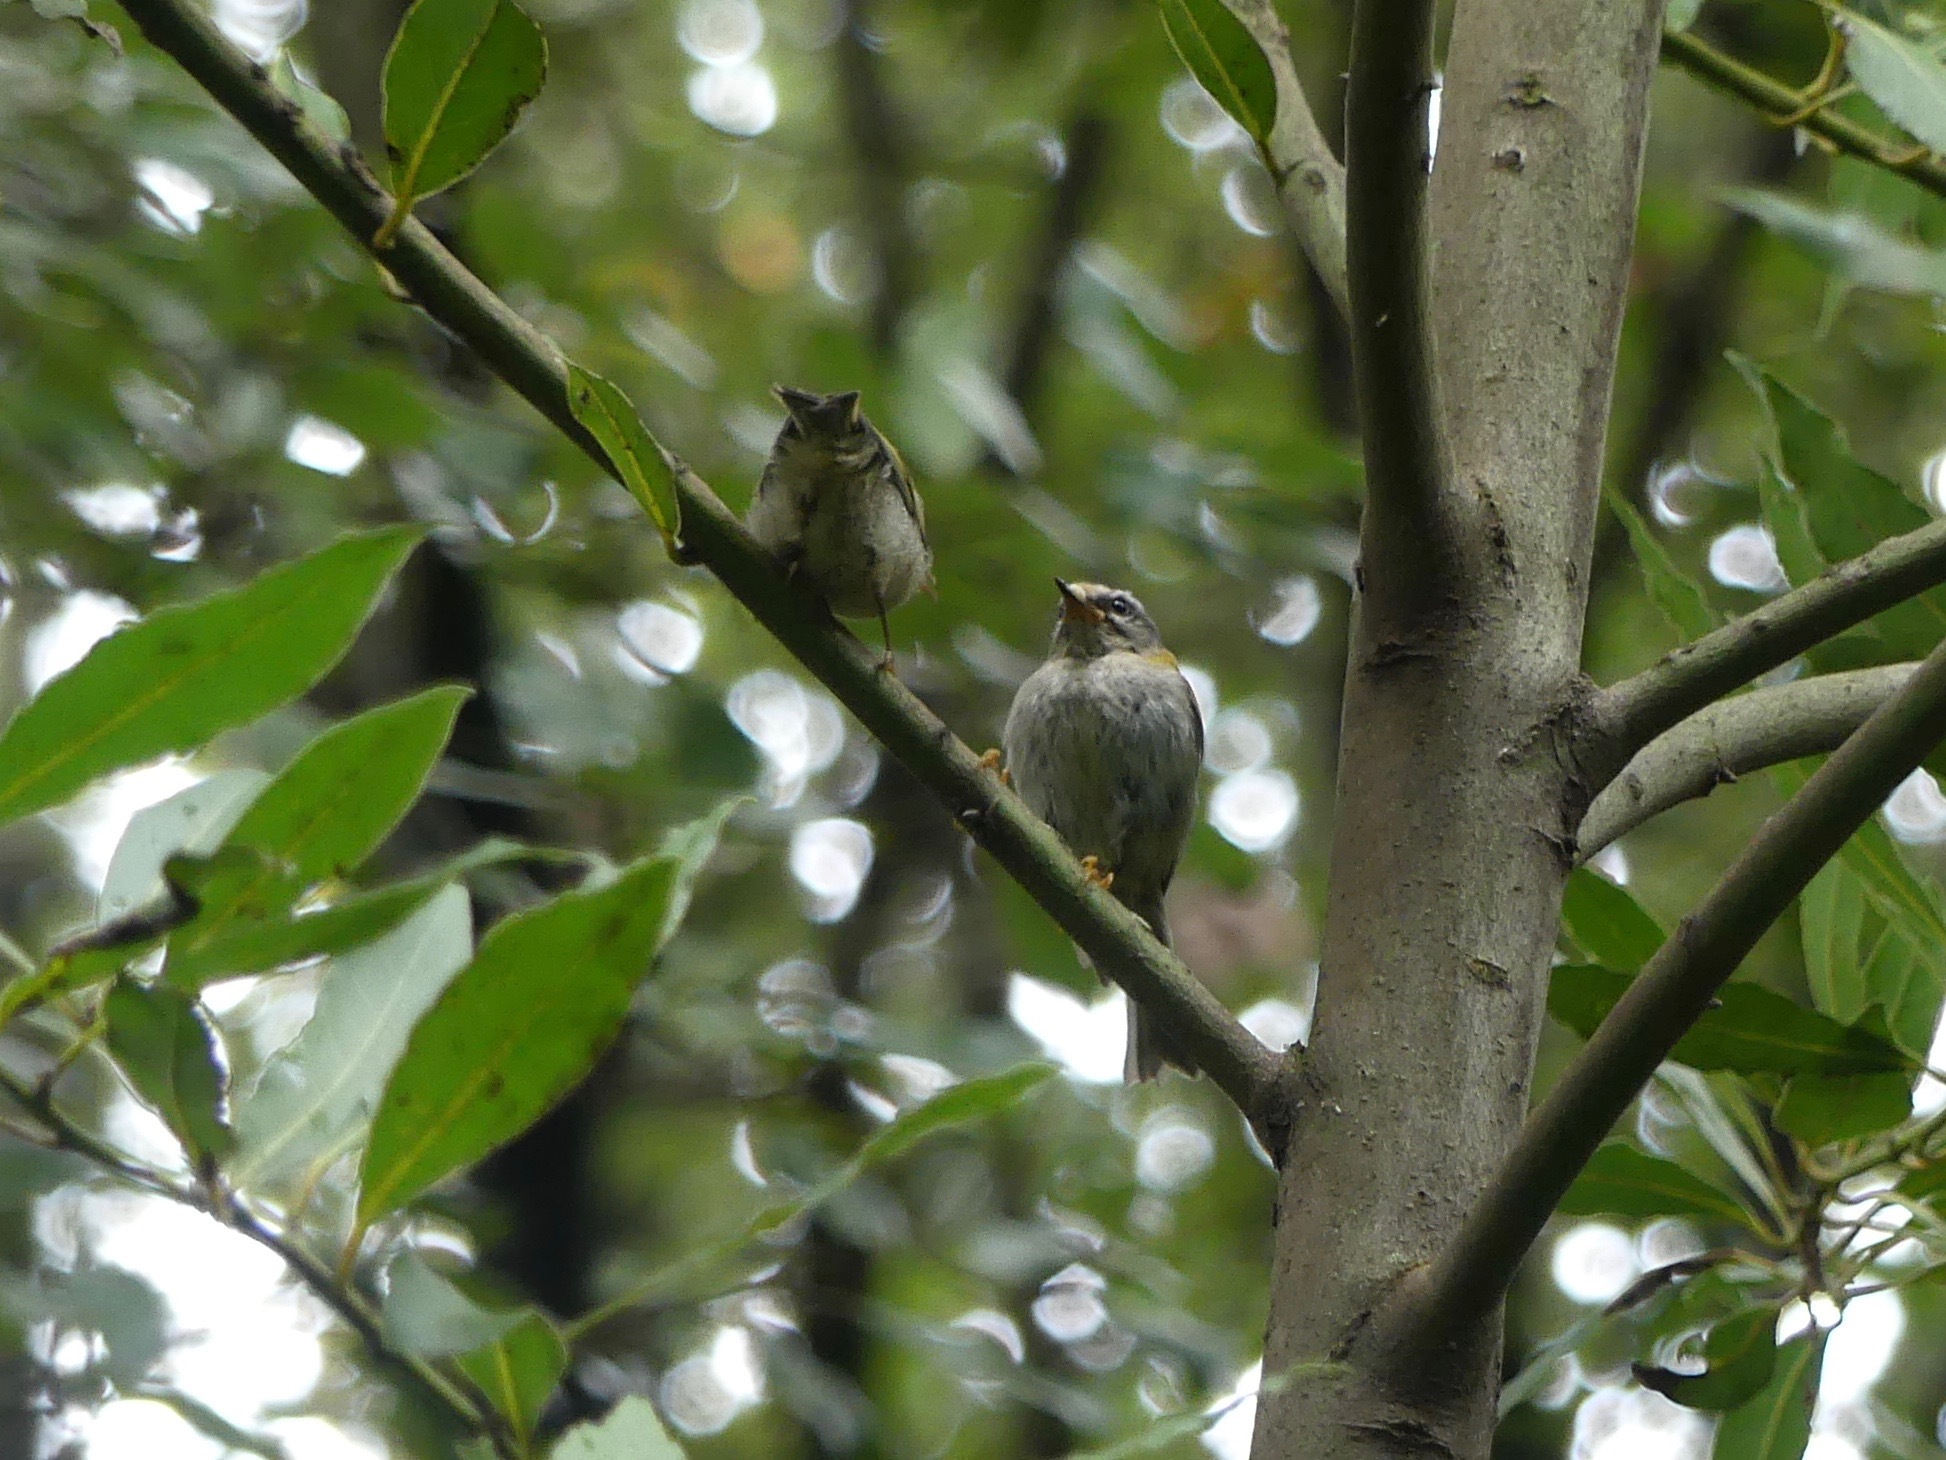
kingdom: Animalia
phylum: Chordata
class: Aves
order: Passeriformes
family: Regulidae
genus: Regulus
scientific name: Regulus ignicapilla
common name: Firecrest
